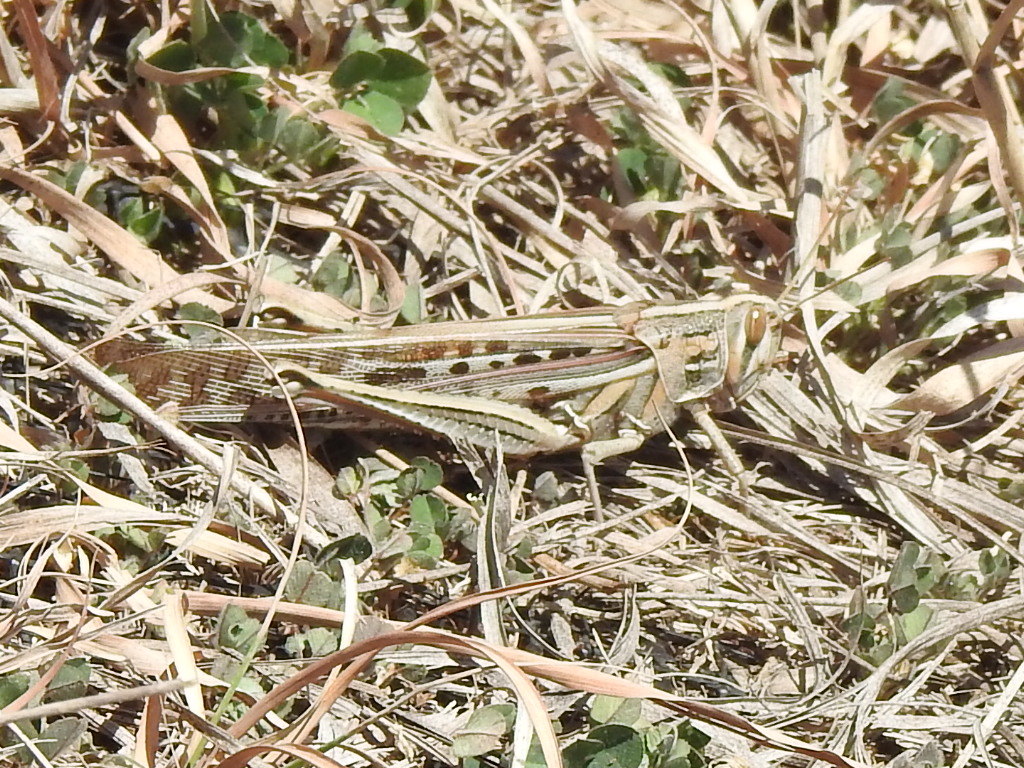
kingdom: Animalia
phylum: Arthropoda
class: Insecta
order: Orthoptera
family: Acrididae
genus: Schistocerca
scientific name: Schistocerca americana
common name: American bird locust
